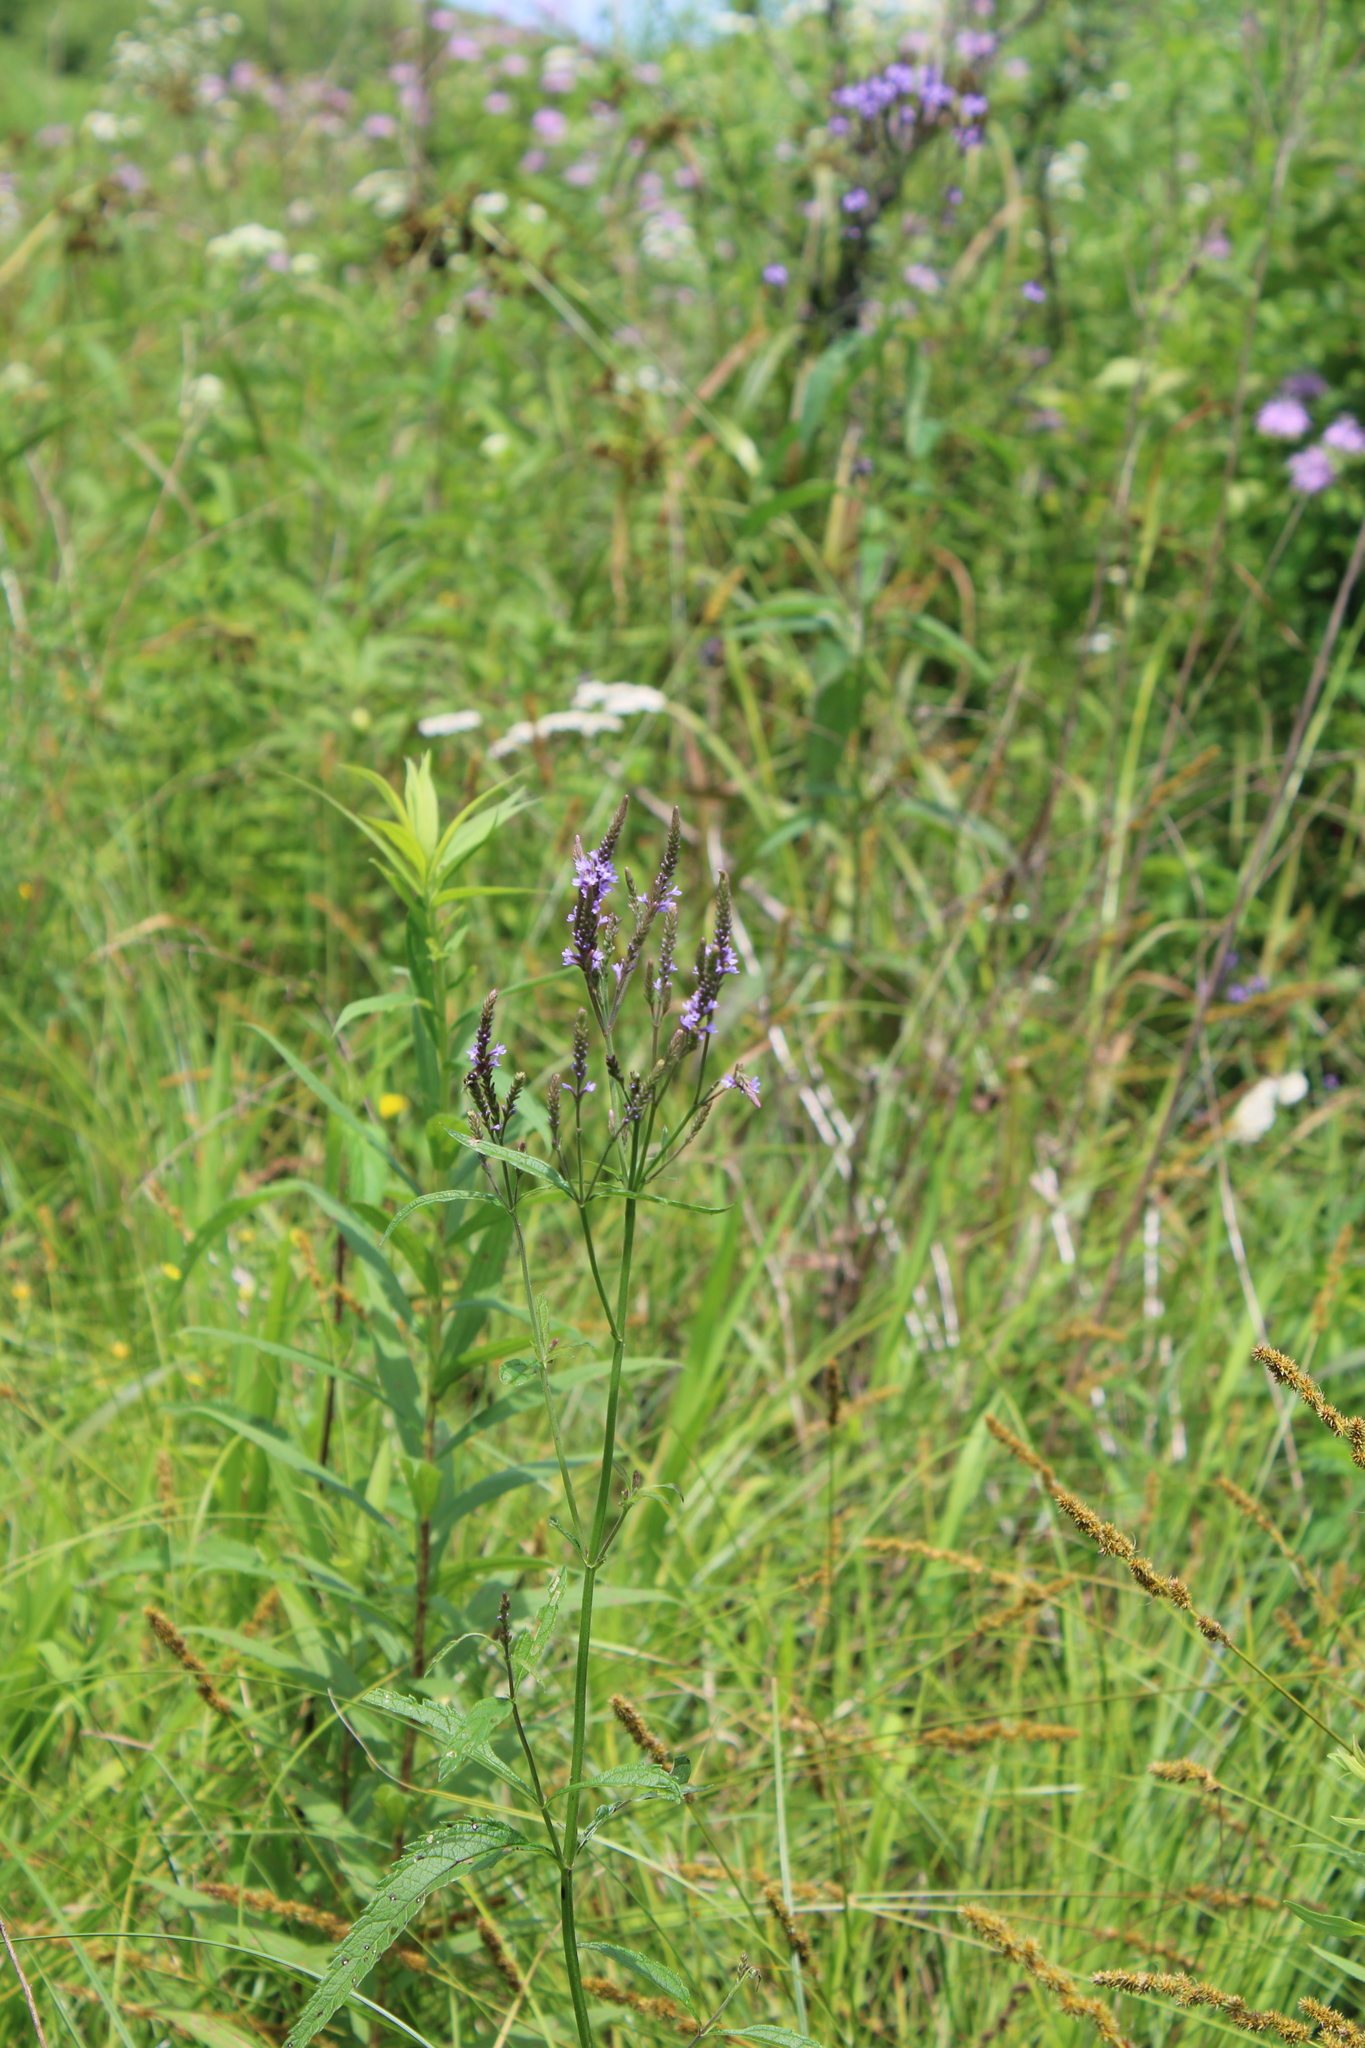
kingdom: Plantae
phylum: Tracheophyta
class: Magnoliopsida
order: Lamiales
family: Verbenaceae
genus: Verbena
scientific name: Verbena hastata
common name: American blue vervain
